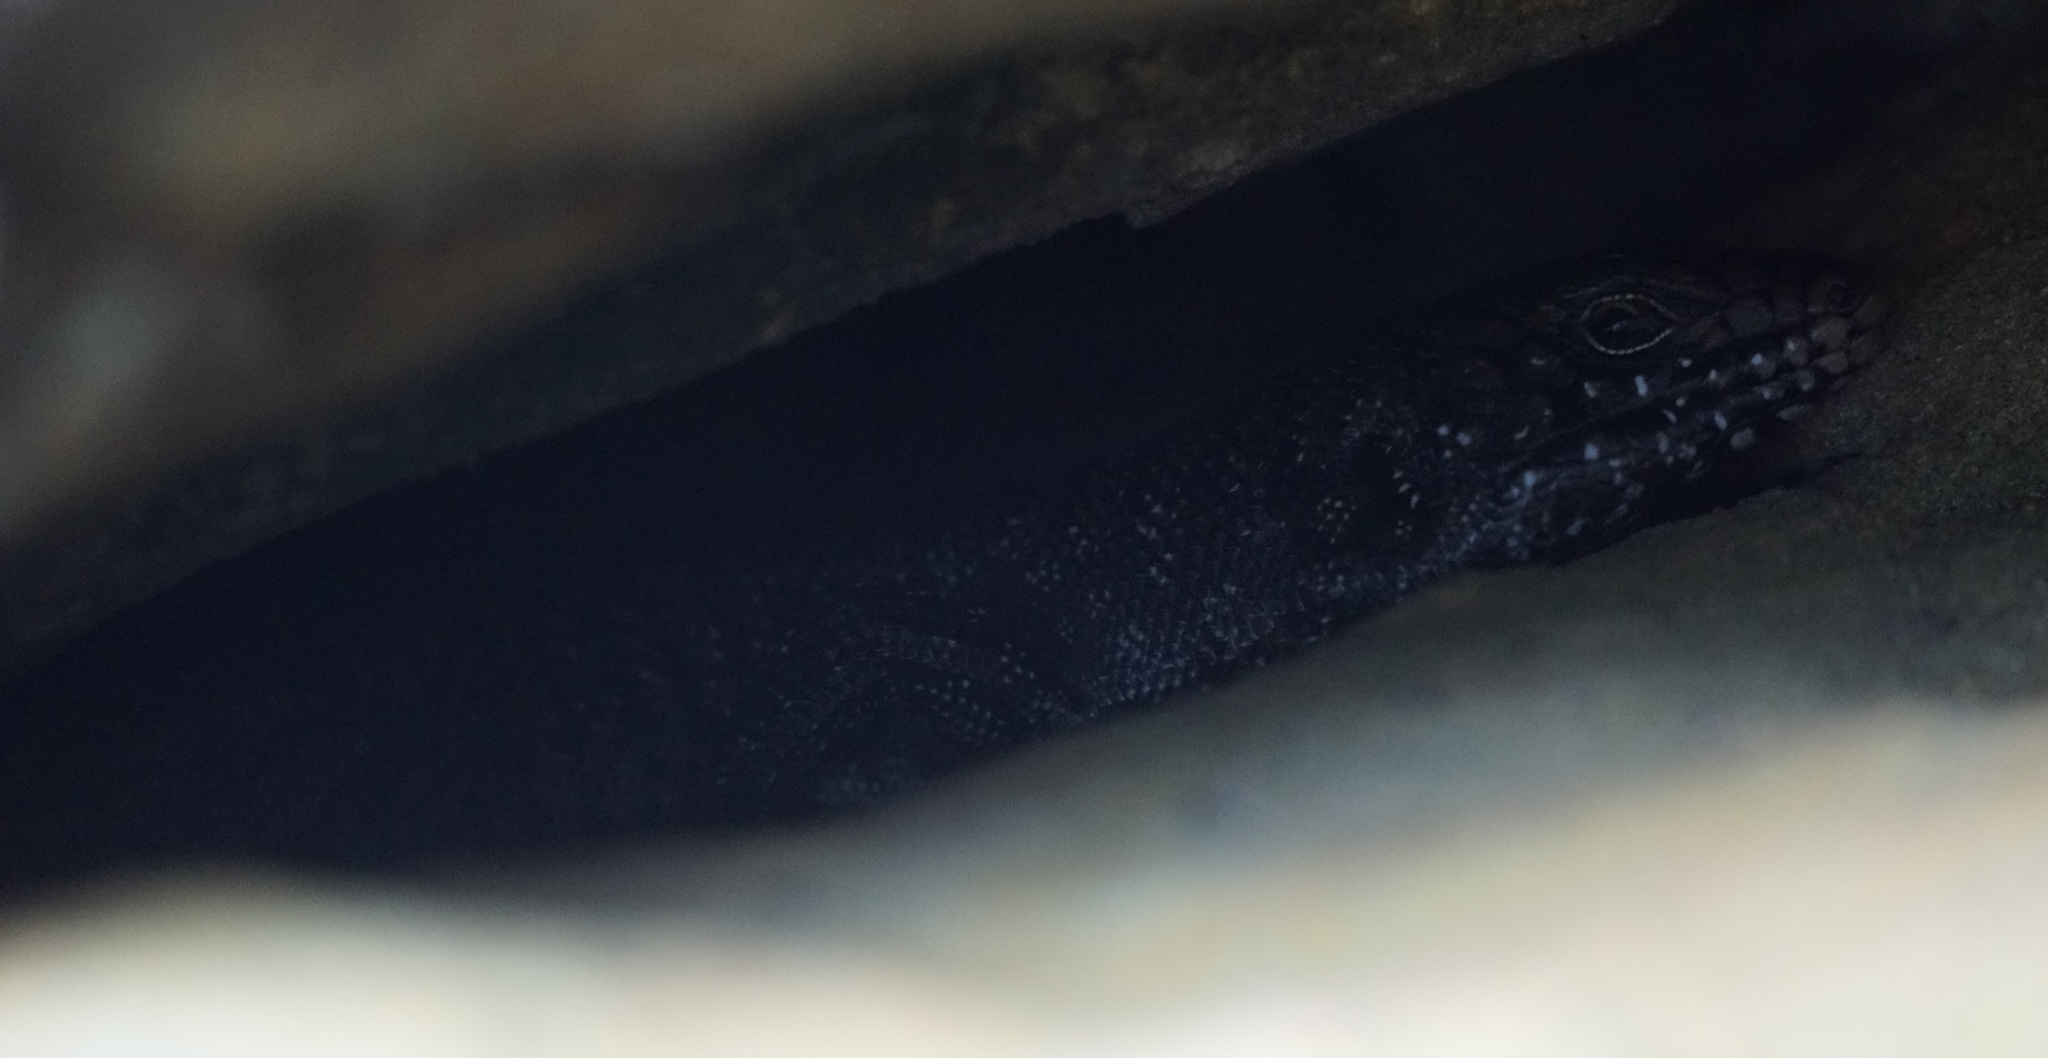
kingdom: Animalia
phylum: Chordata
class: Squamata
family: Scincidae
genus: Egernia
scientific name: Egernia cunninghami
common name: Cunningham's skink
